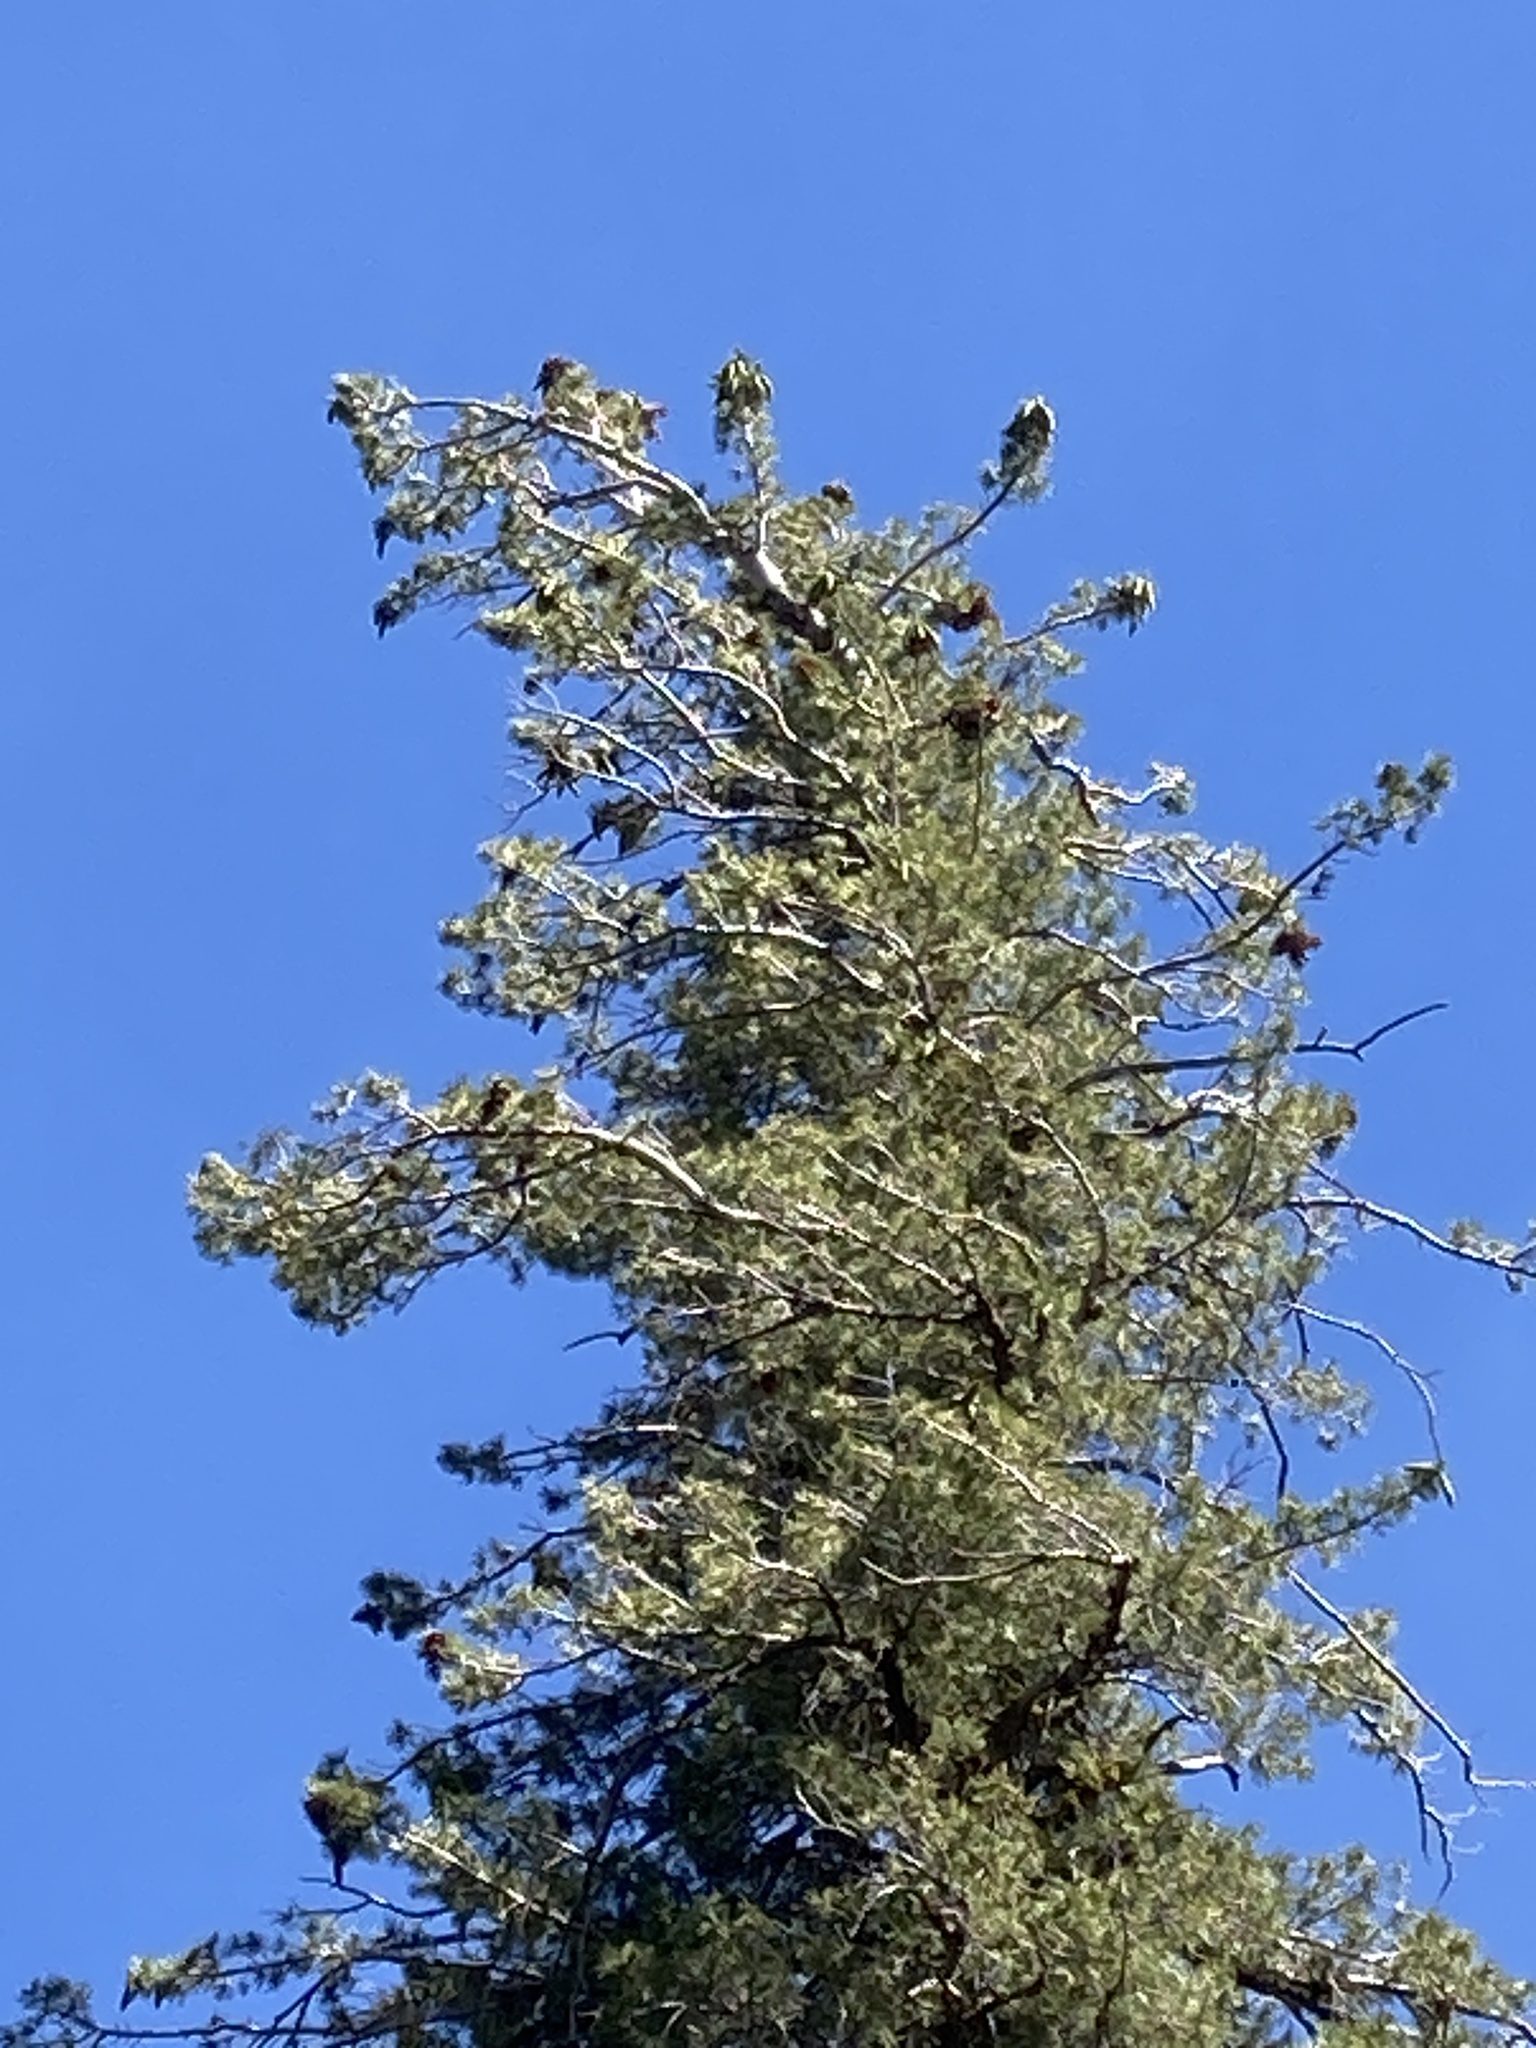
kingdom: Plantae
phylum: Tracheophyta
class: Pinopsida
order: Pinales
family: Pinaceae
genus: Pinus
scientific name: Pinus monticola
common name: Western white pine
